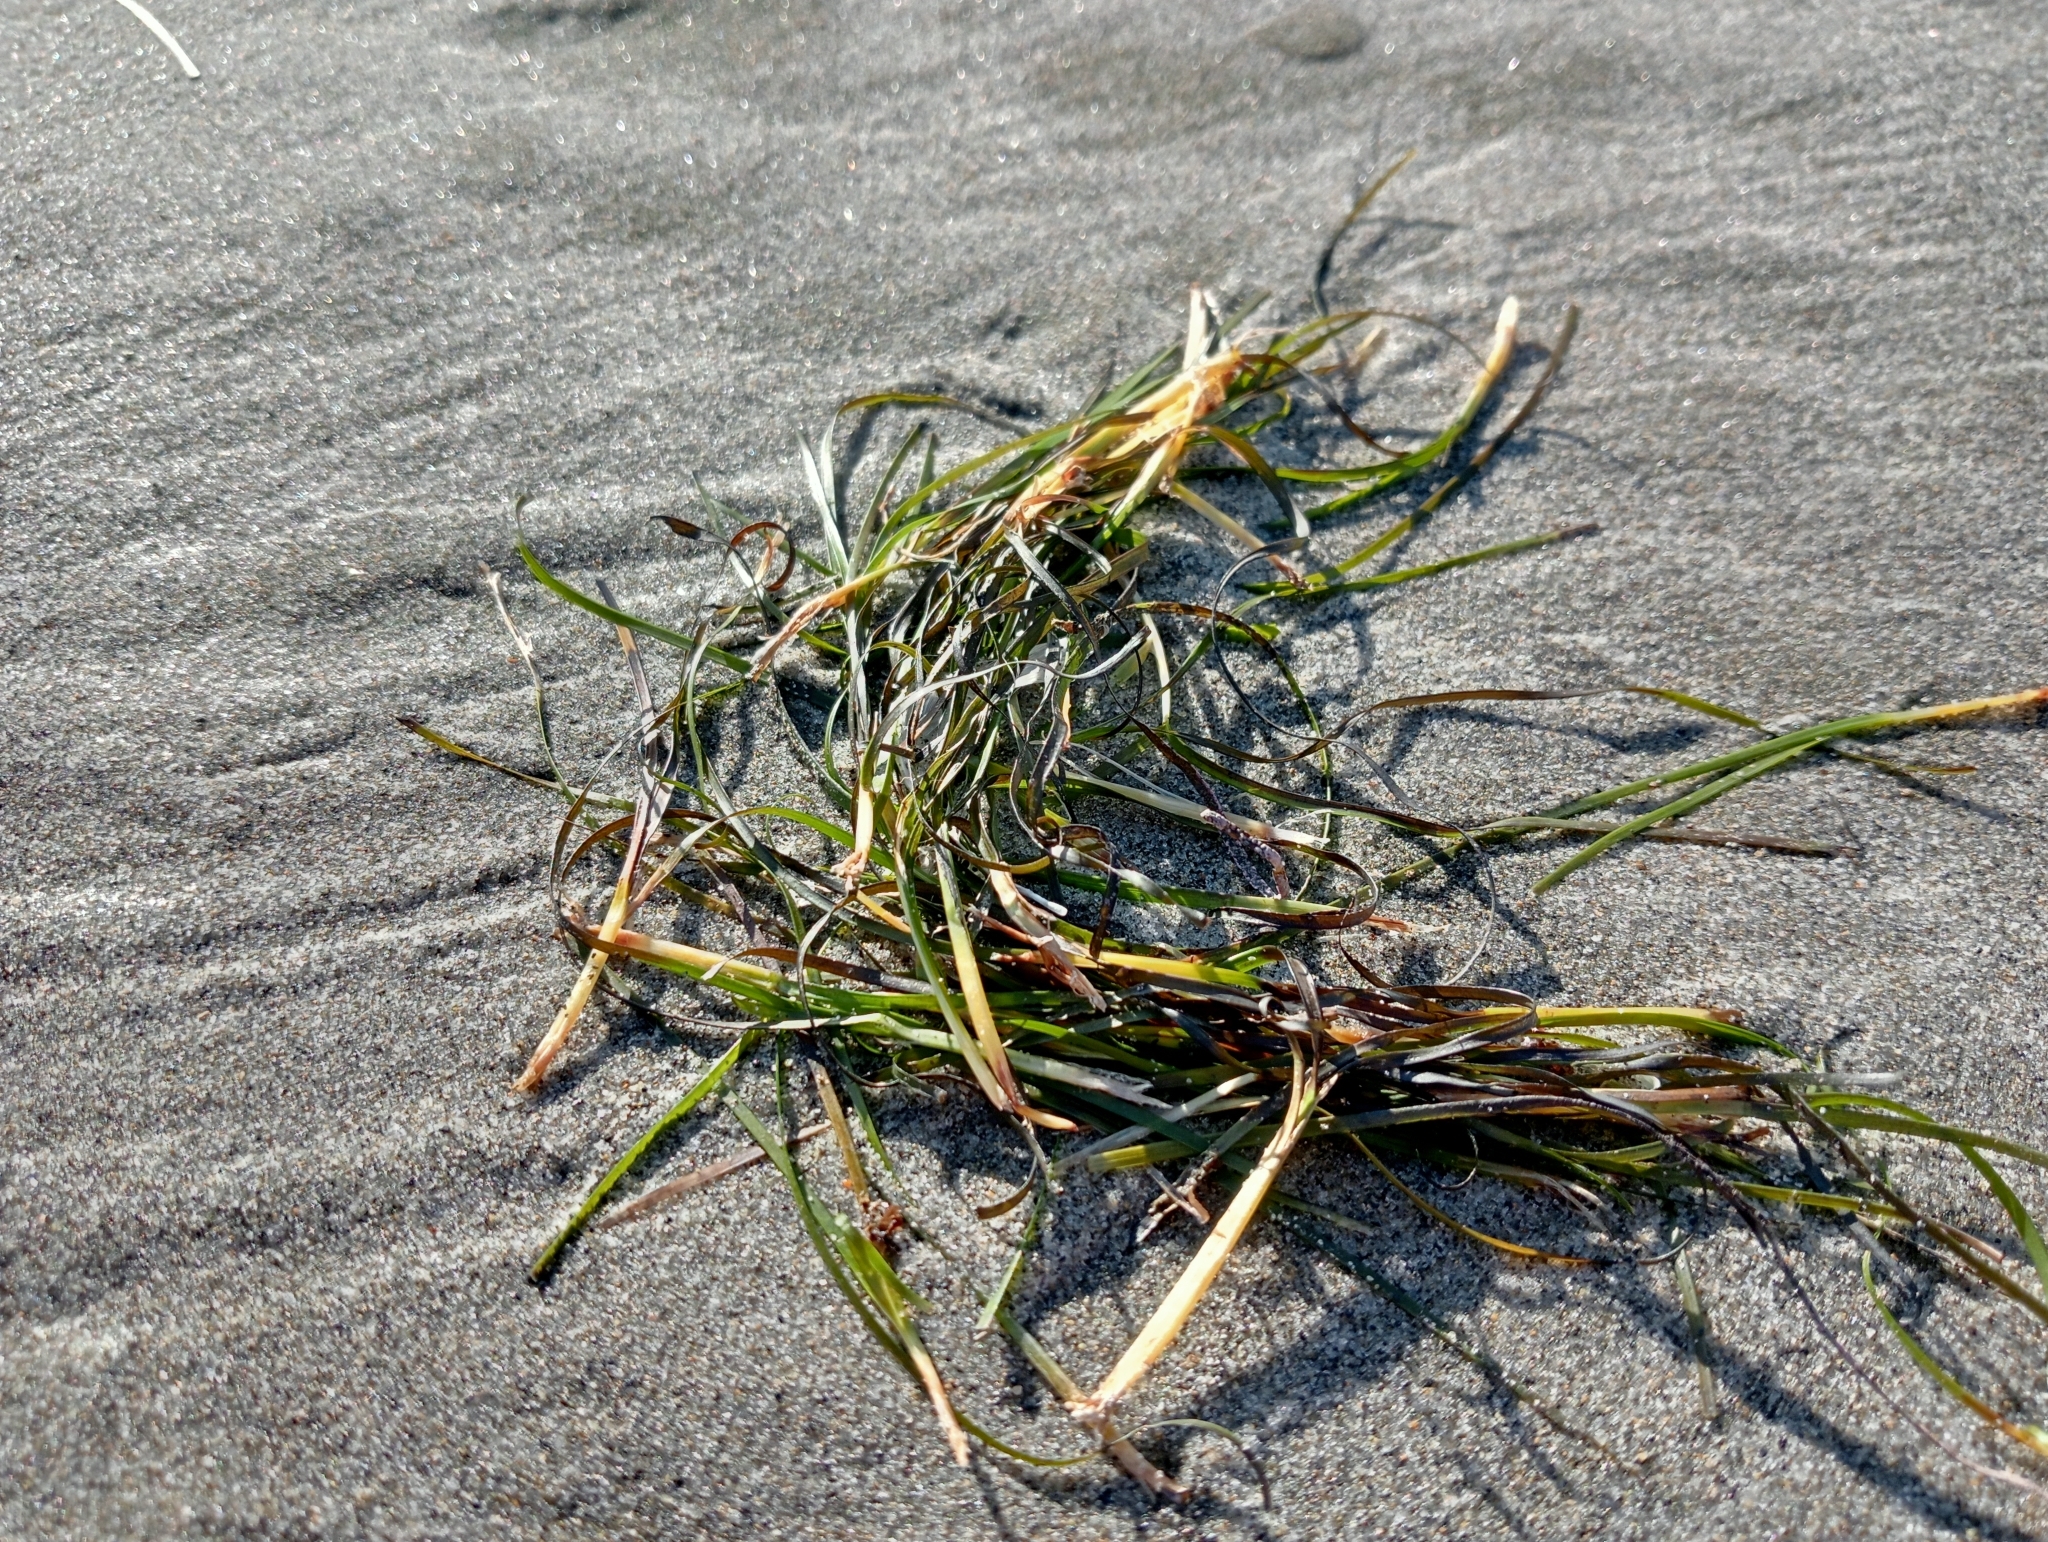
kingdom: Plantae
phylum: Tracheophyta
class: Liliopsida
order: Alismatales
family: Zosteraceae
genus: Zostera
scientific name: Zostera novazelandica
